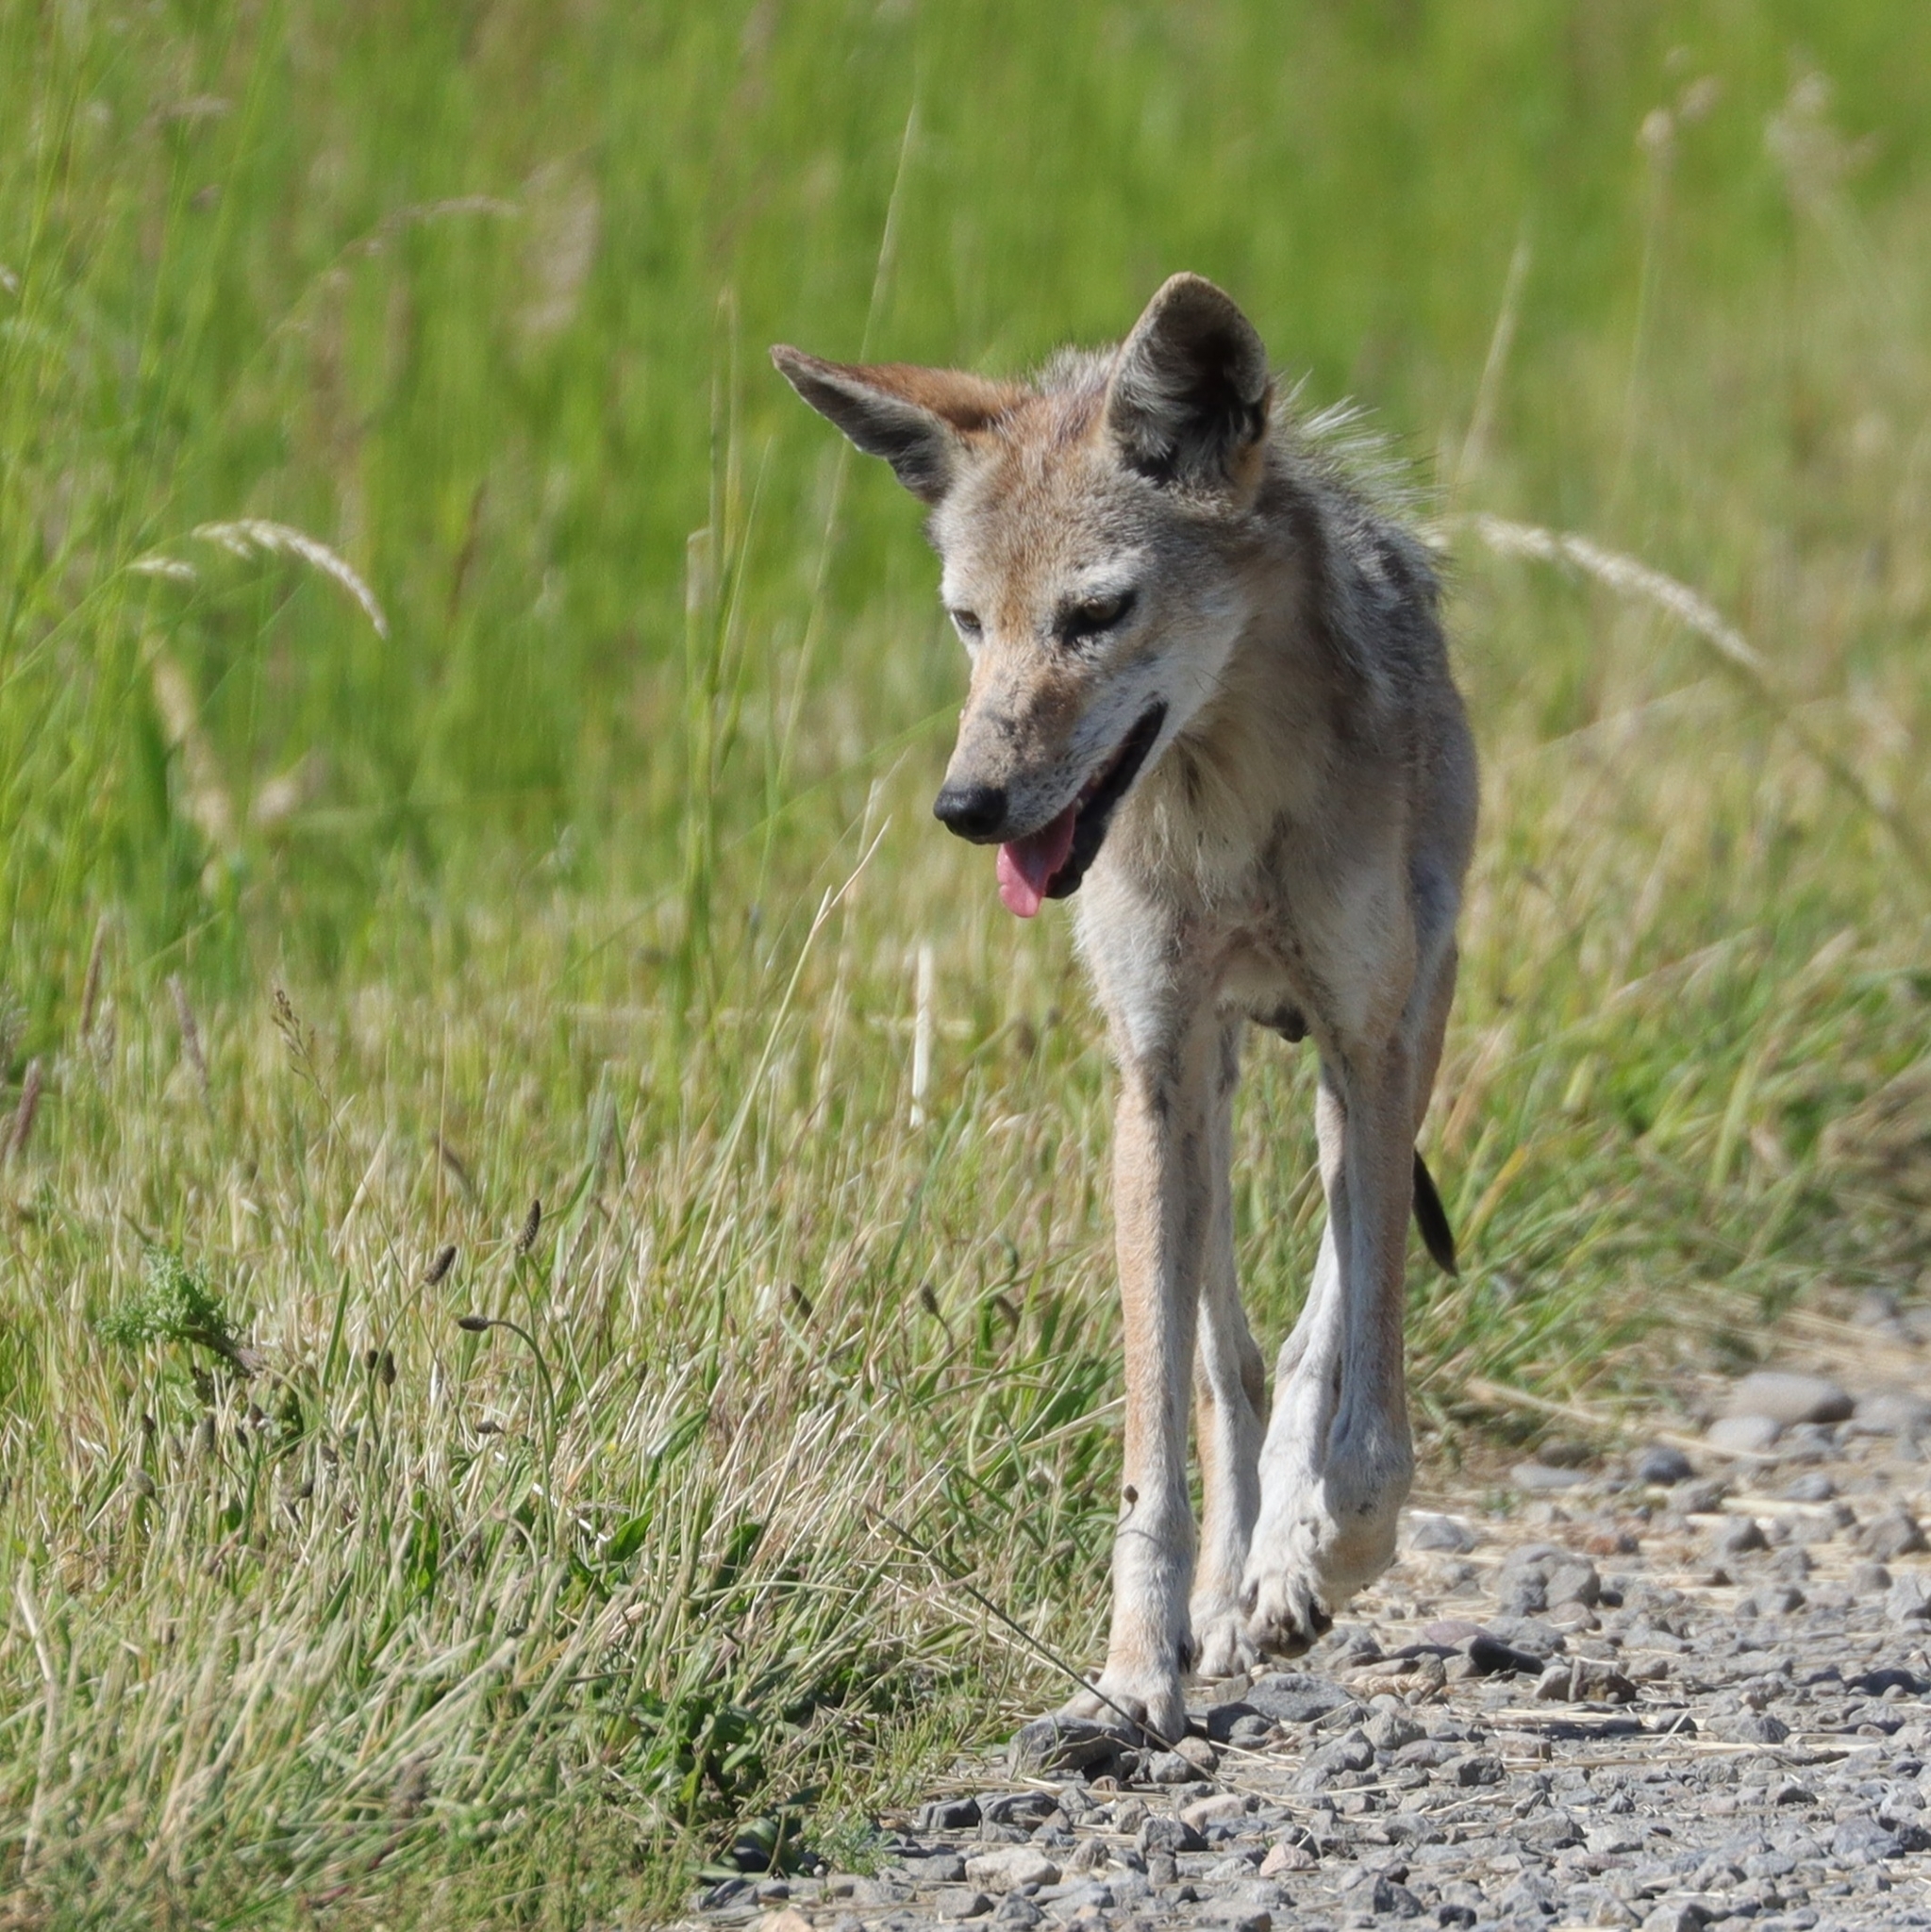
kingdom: Animalia
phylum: Chordata
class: Mammalia
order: Carnivora
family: Canidae
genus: Canis
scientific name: Canis latrans
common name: Coyote
